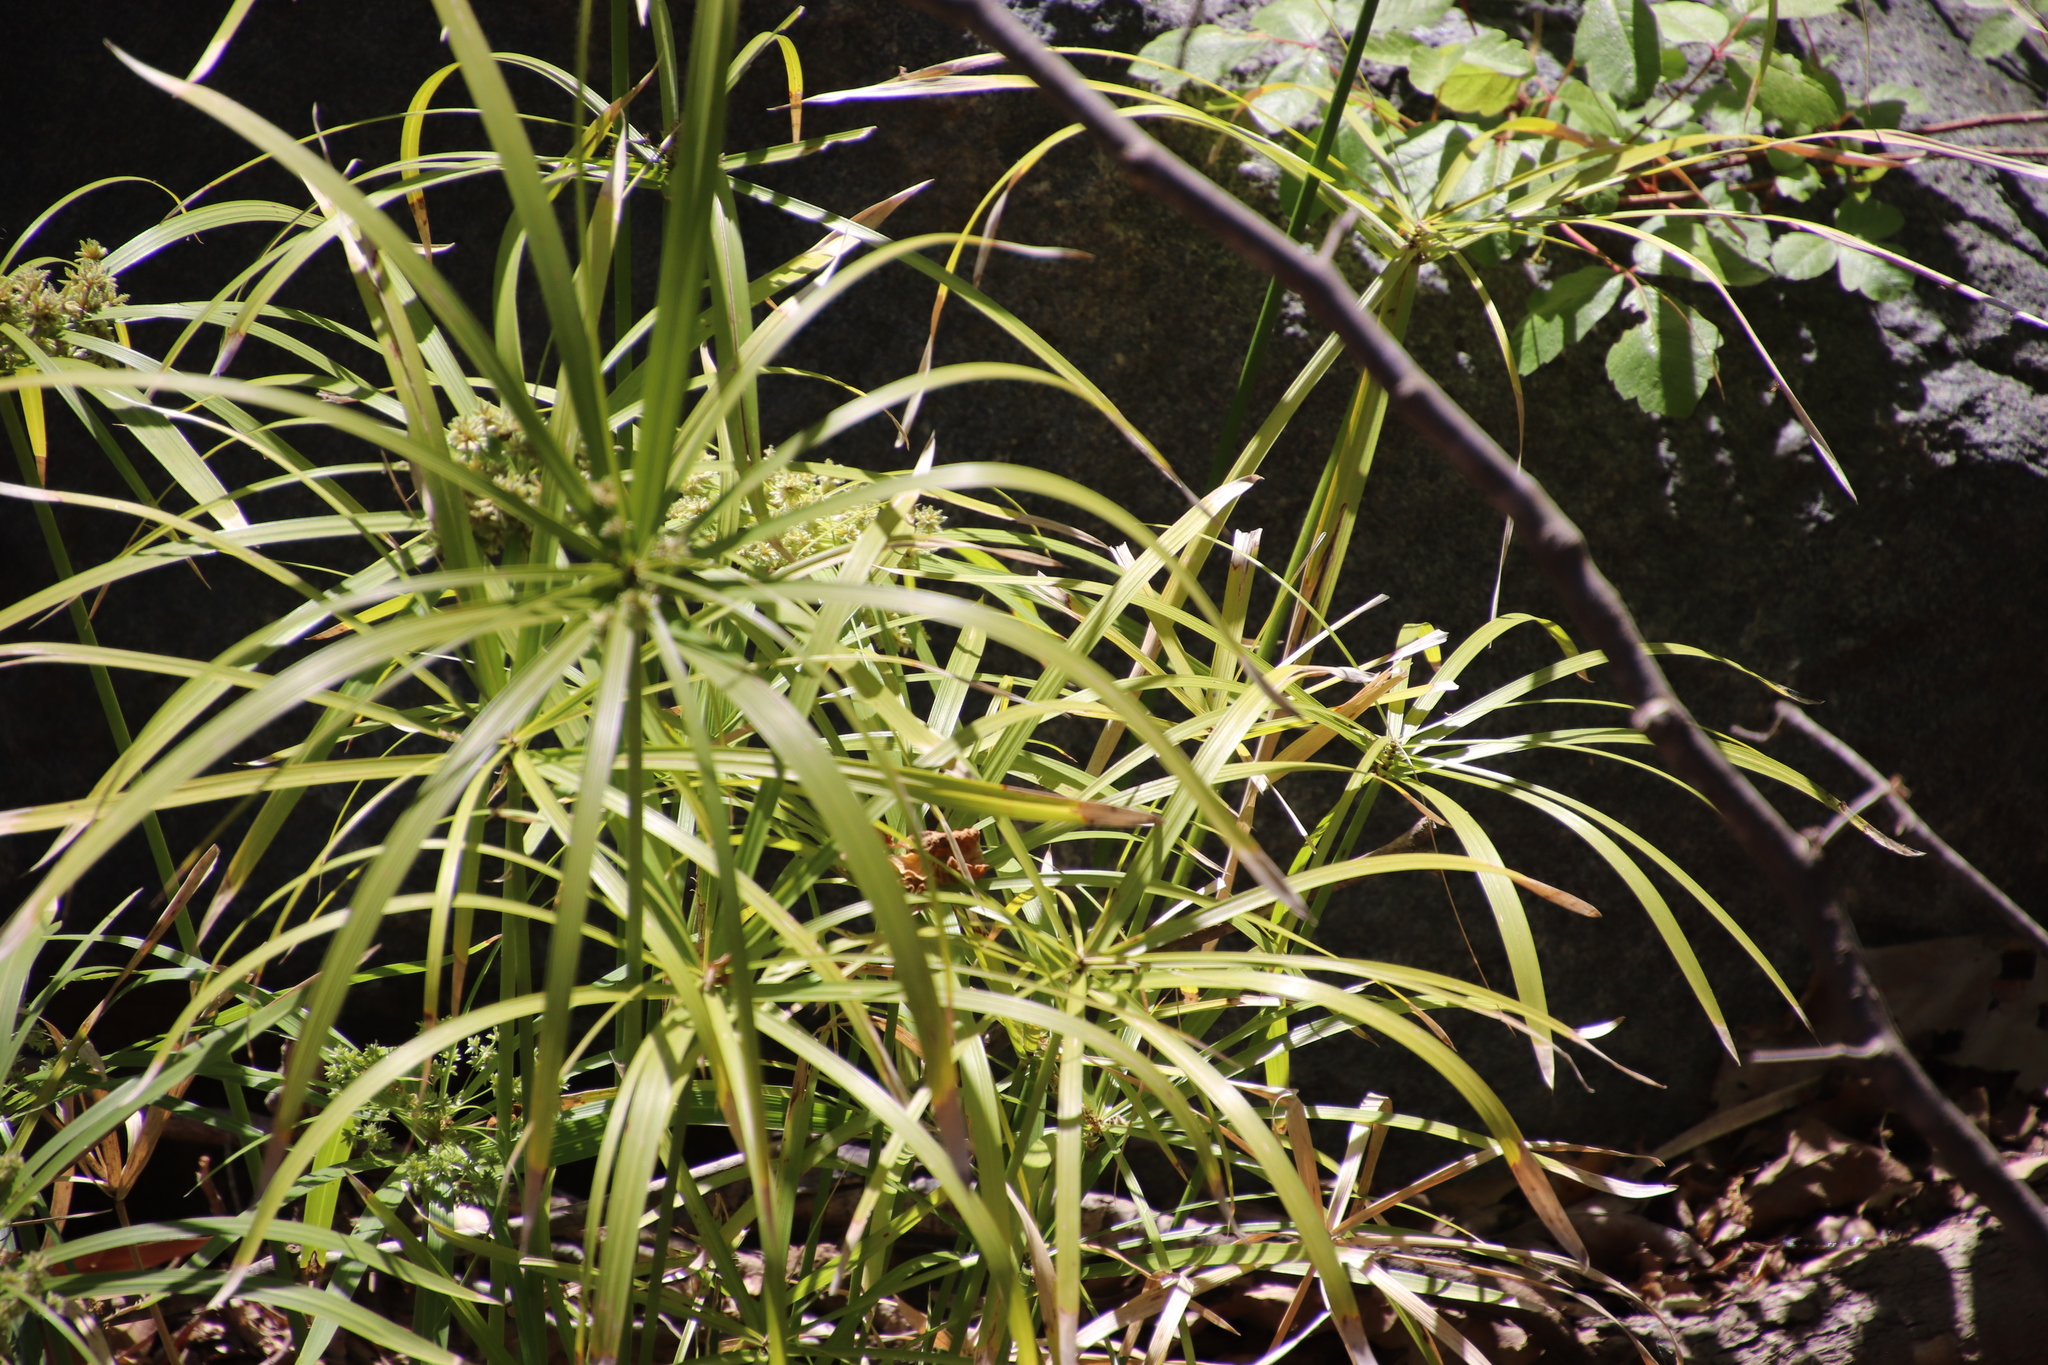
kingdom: Plantae
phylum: Tracheophyta
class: Liliopsida
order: Poales
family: Cyperaceae
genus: Cyperus
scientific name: Cyperus alternifolius
